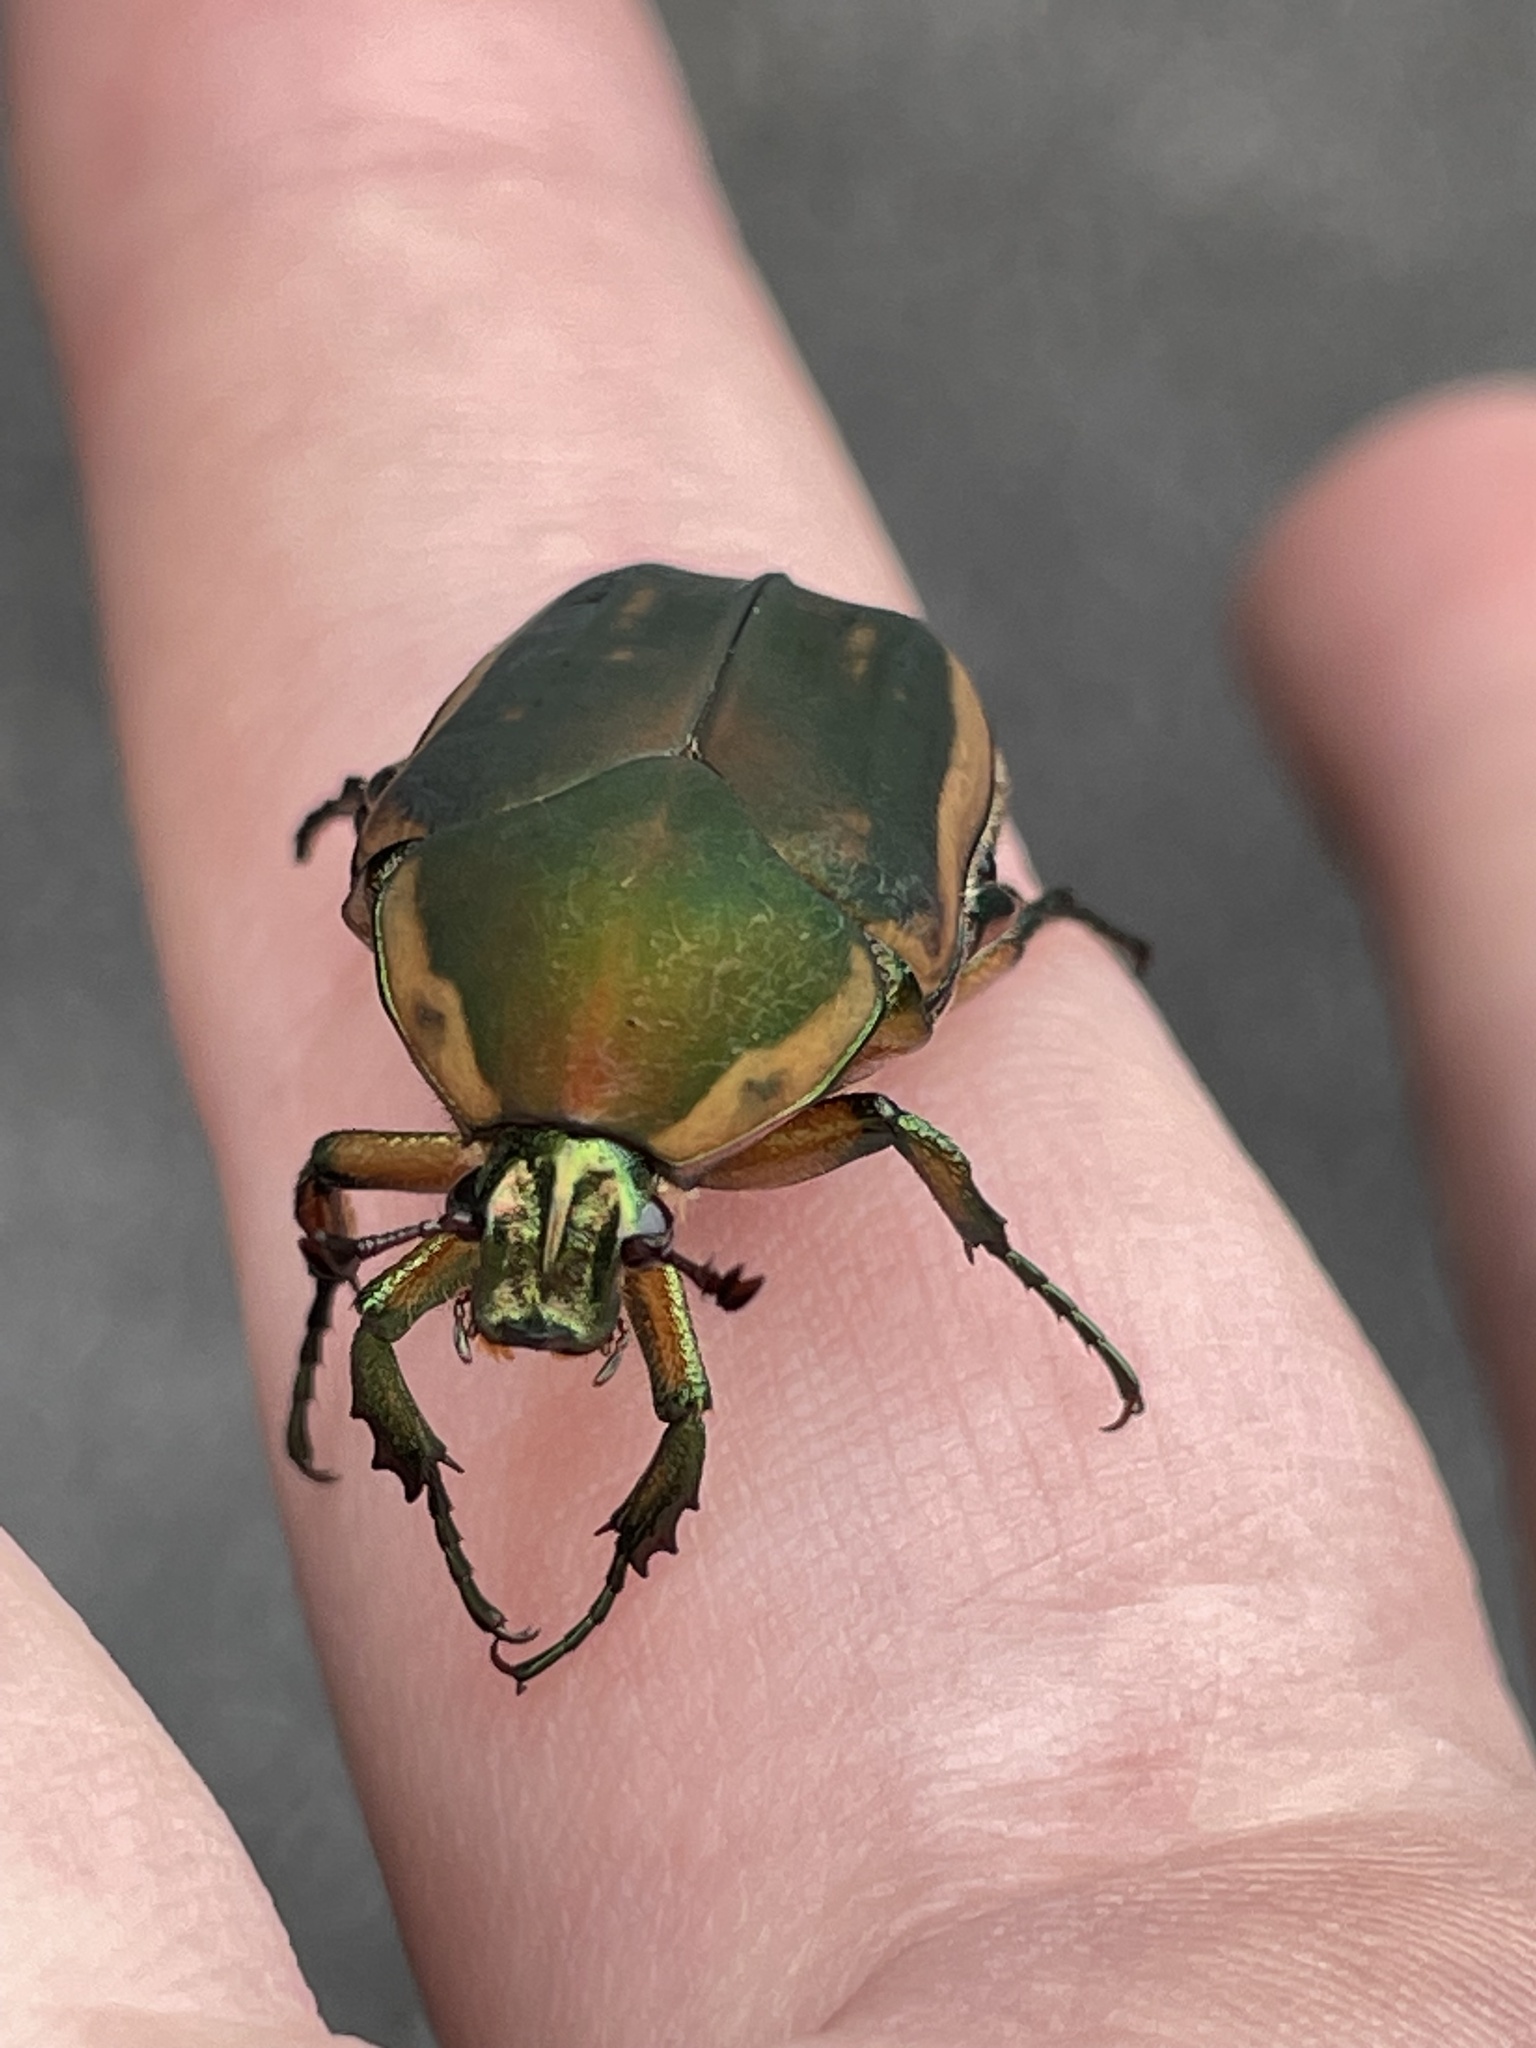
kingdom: Animalia
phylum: Arthropoda
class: Insecta
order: Coleoptera
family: Scarabaeidae
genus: Cotinis
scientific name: Cotinis nitida
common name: Common green june beetle
